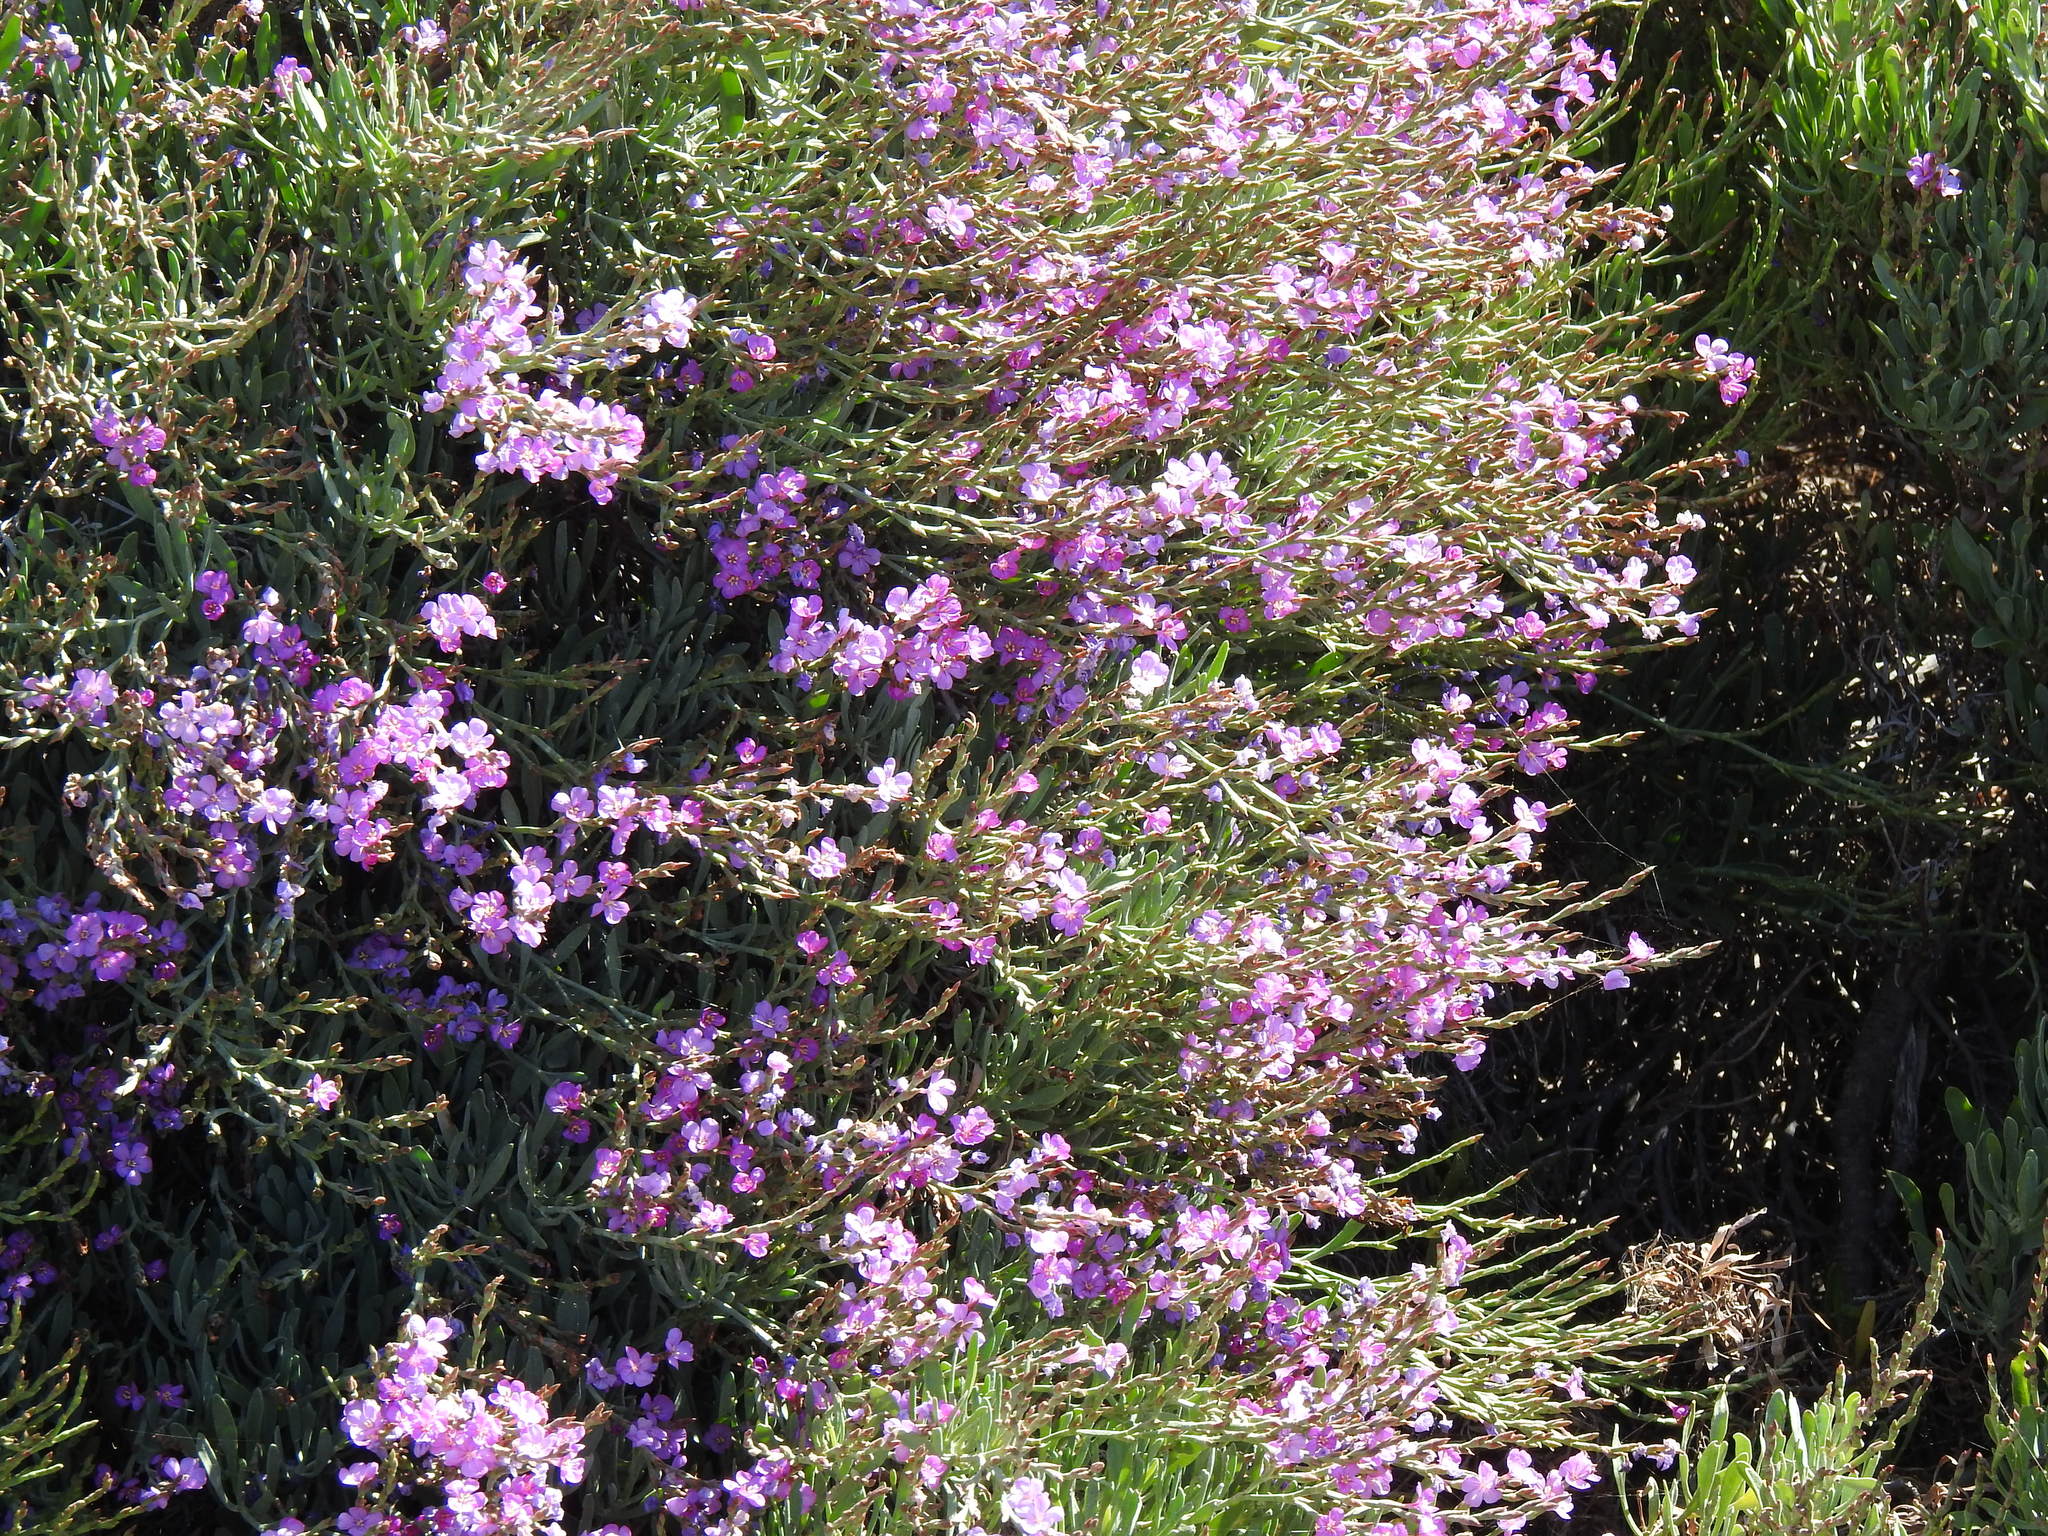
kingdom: Plantae
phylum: Tracheophyta
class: Magnoliopsida
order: Caryophyllales
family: Plumbaginaceae
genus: Limoniastrum
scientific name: Limoniastrum monopetalum
